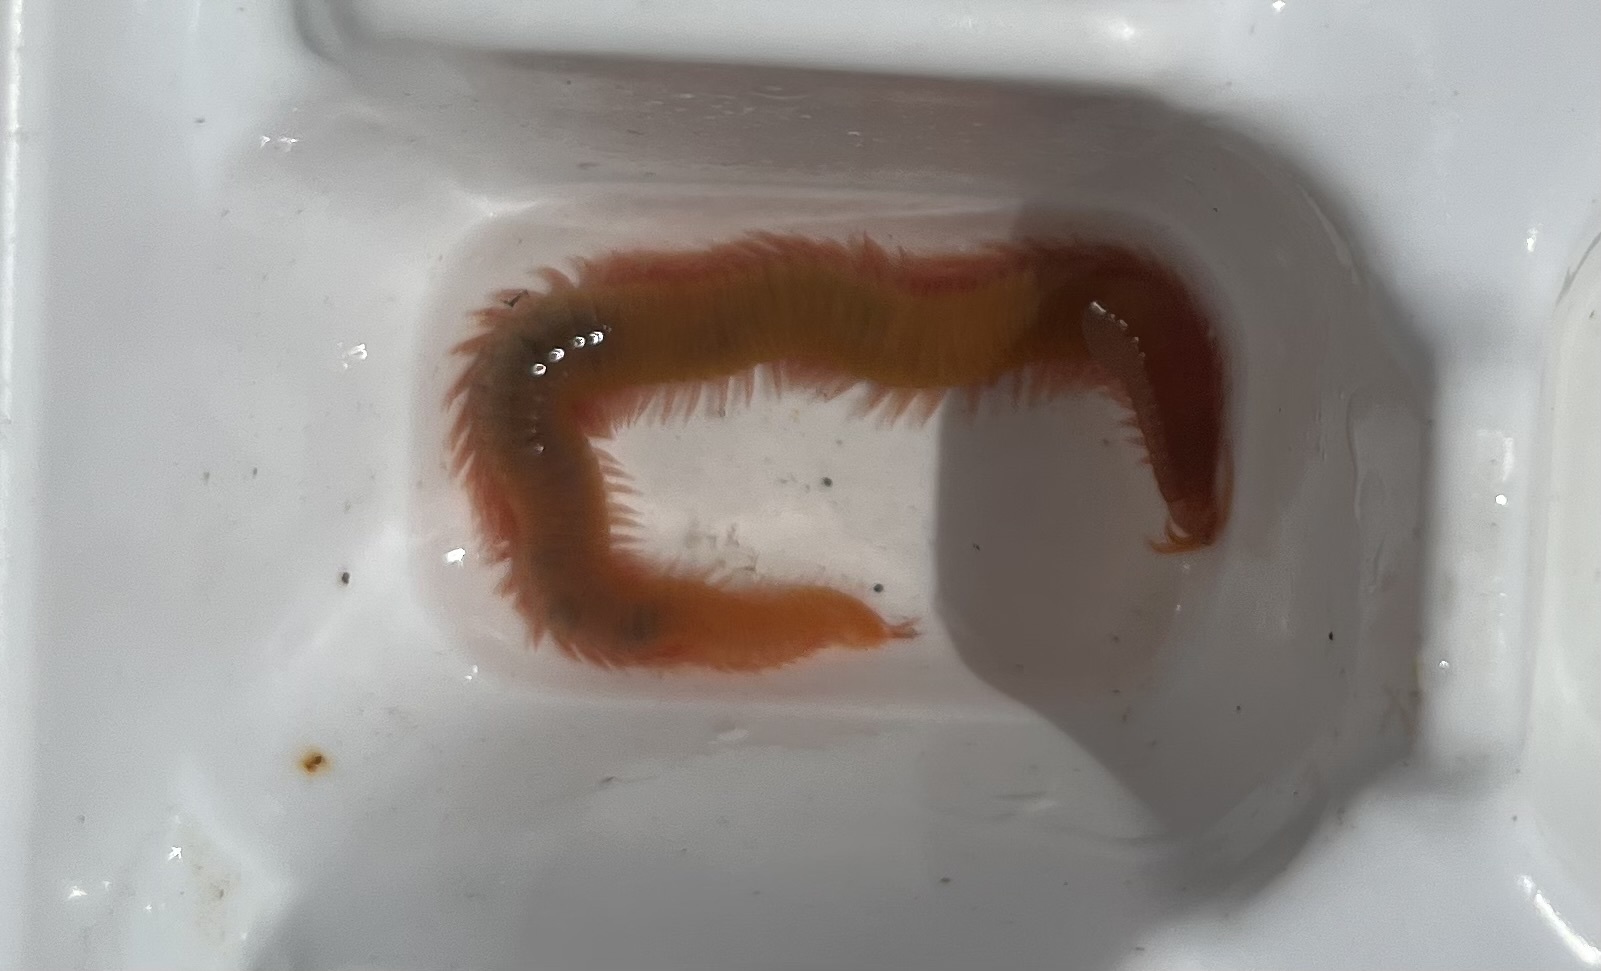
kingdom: Animalia
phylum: Annelida
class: Polychaeta
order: Eunicida
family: Dorvilleidae
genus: Dorvillea
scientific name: Dorvillea australiensis
